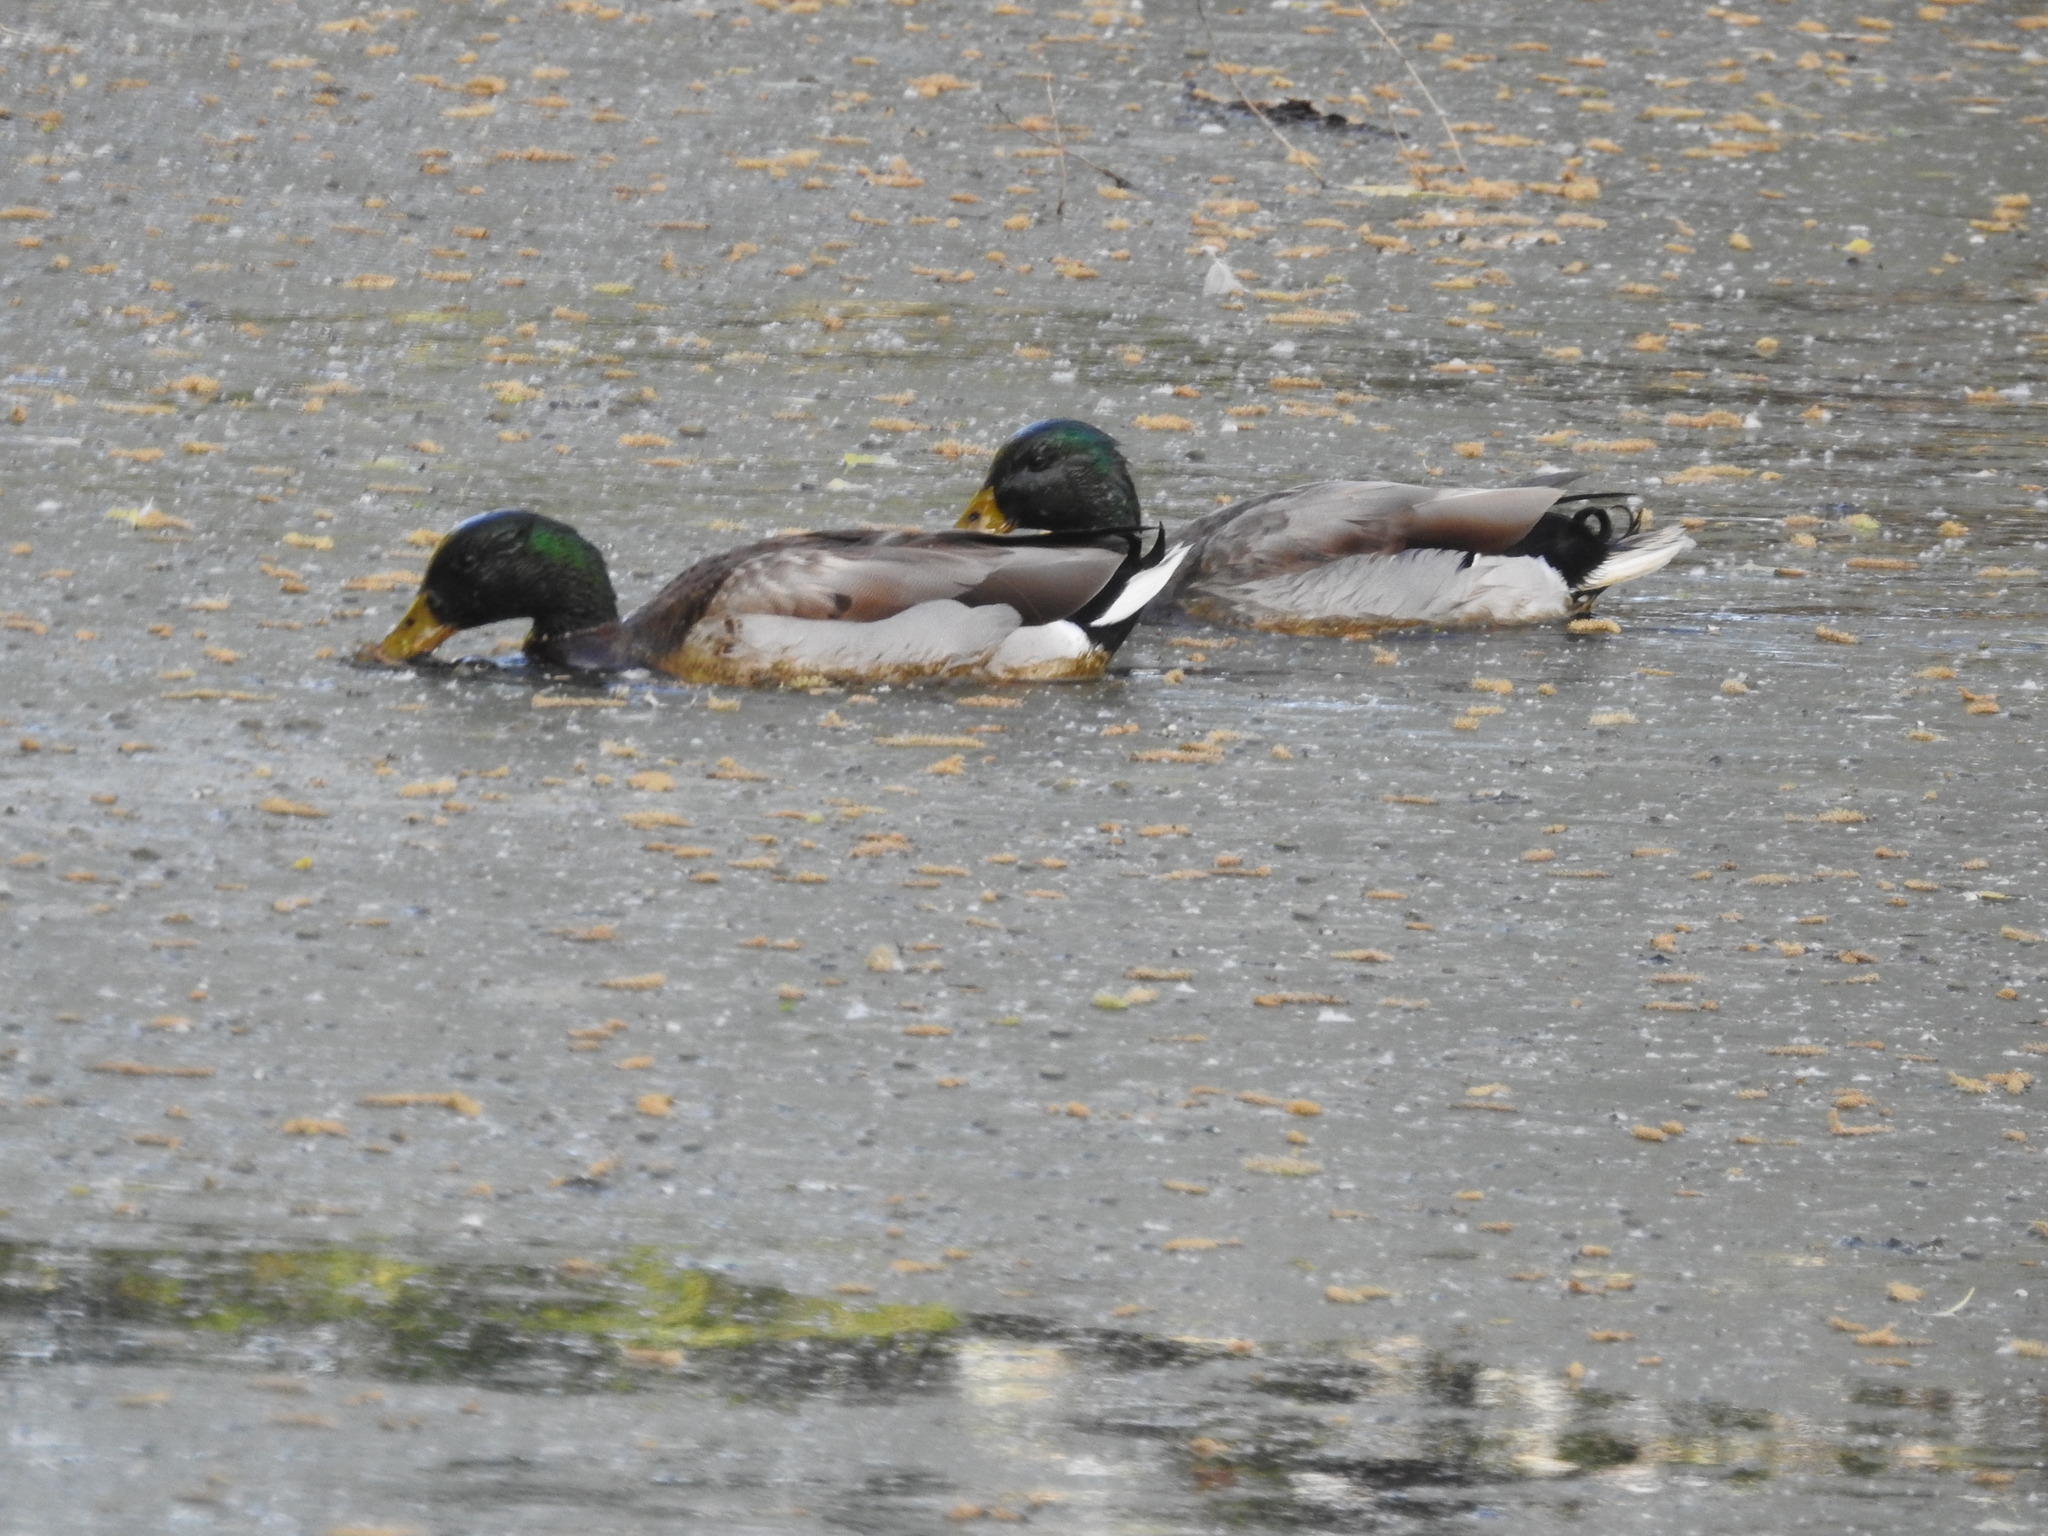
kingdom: Animalia
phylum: Chordata
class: Aves
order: Anseriformes
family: Anatidae
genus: Anas
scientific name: Anas platyrhynchos
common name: Mallard
